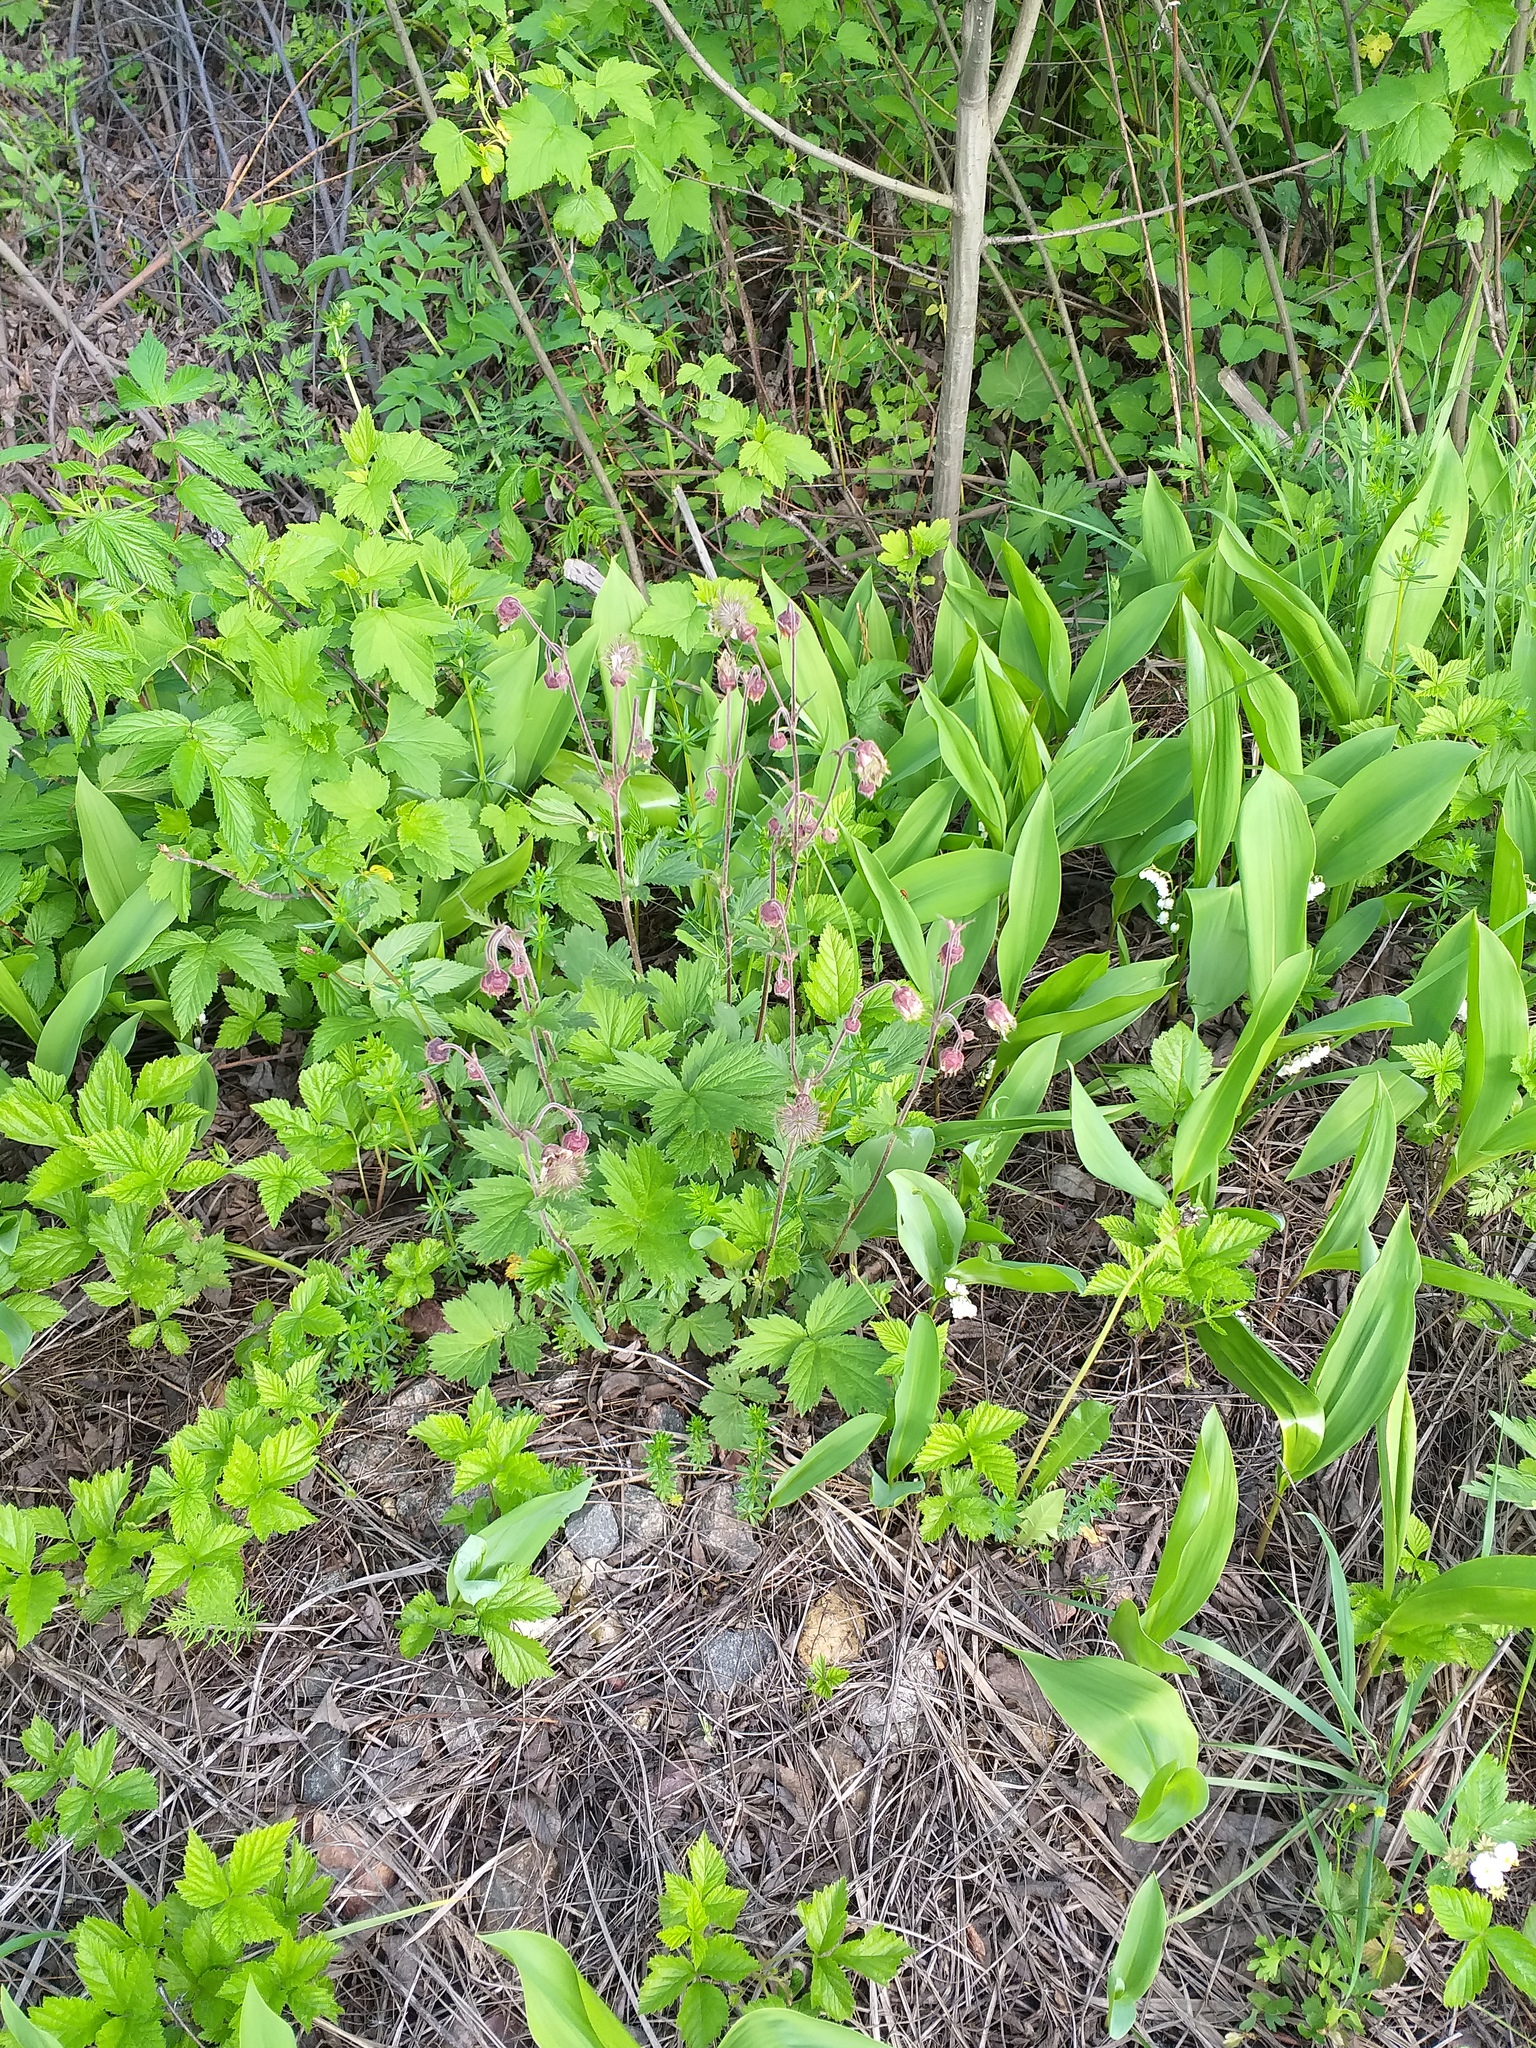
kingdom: Plantae
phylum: Tracheophyta
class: Magnoliopsida
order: Rosales
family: Rosaceae
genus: Geum
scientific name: Geum rivale
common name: Water avens
